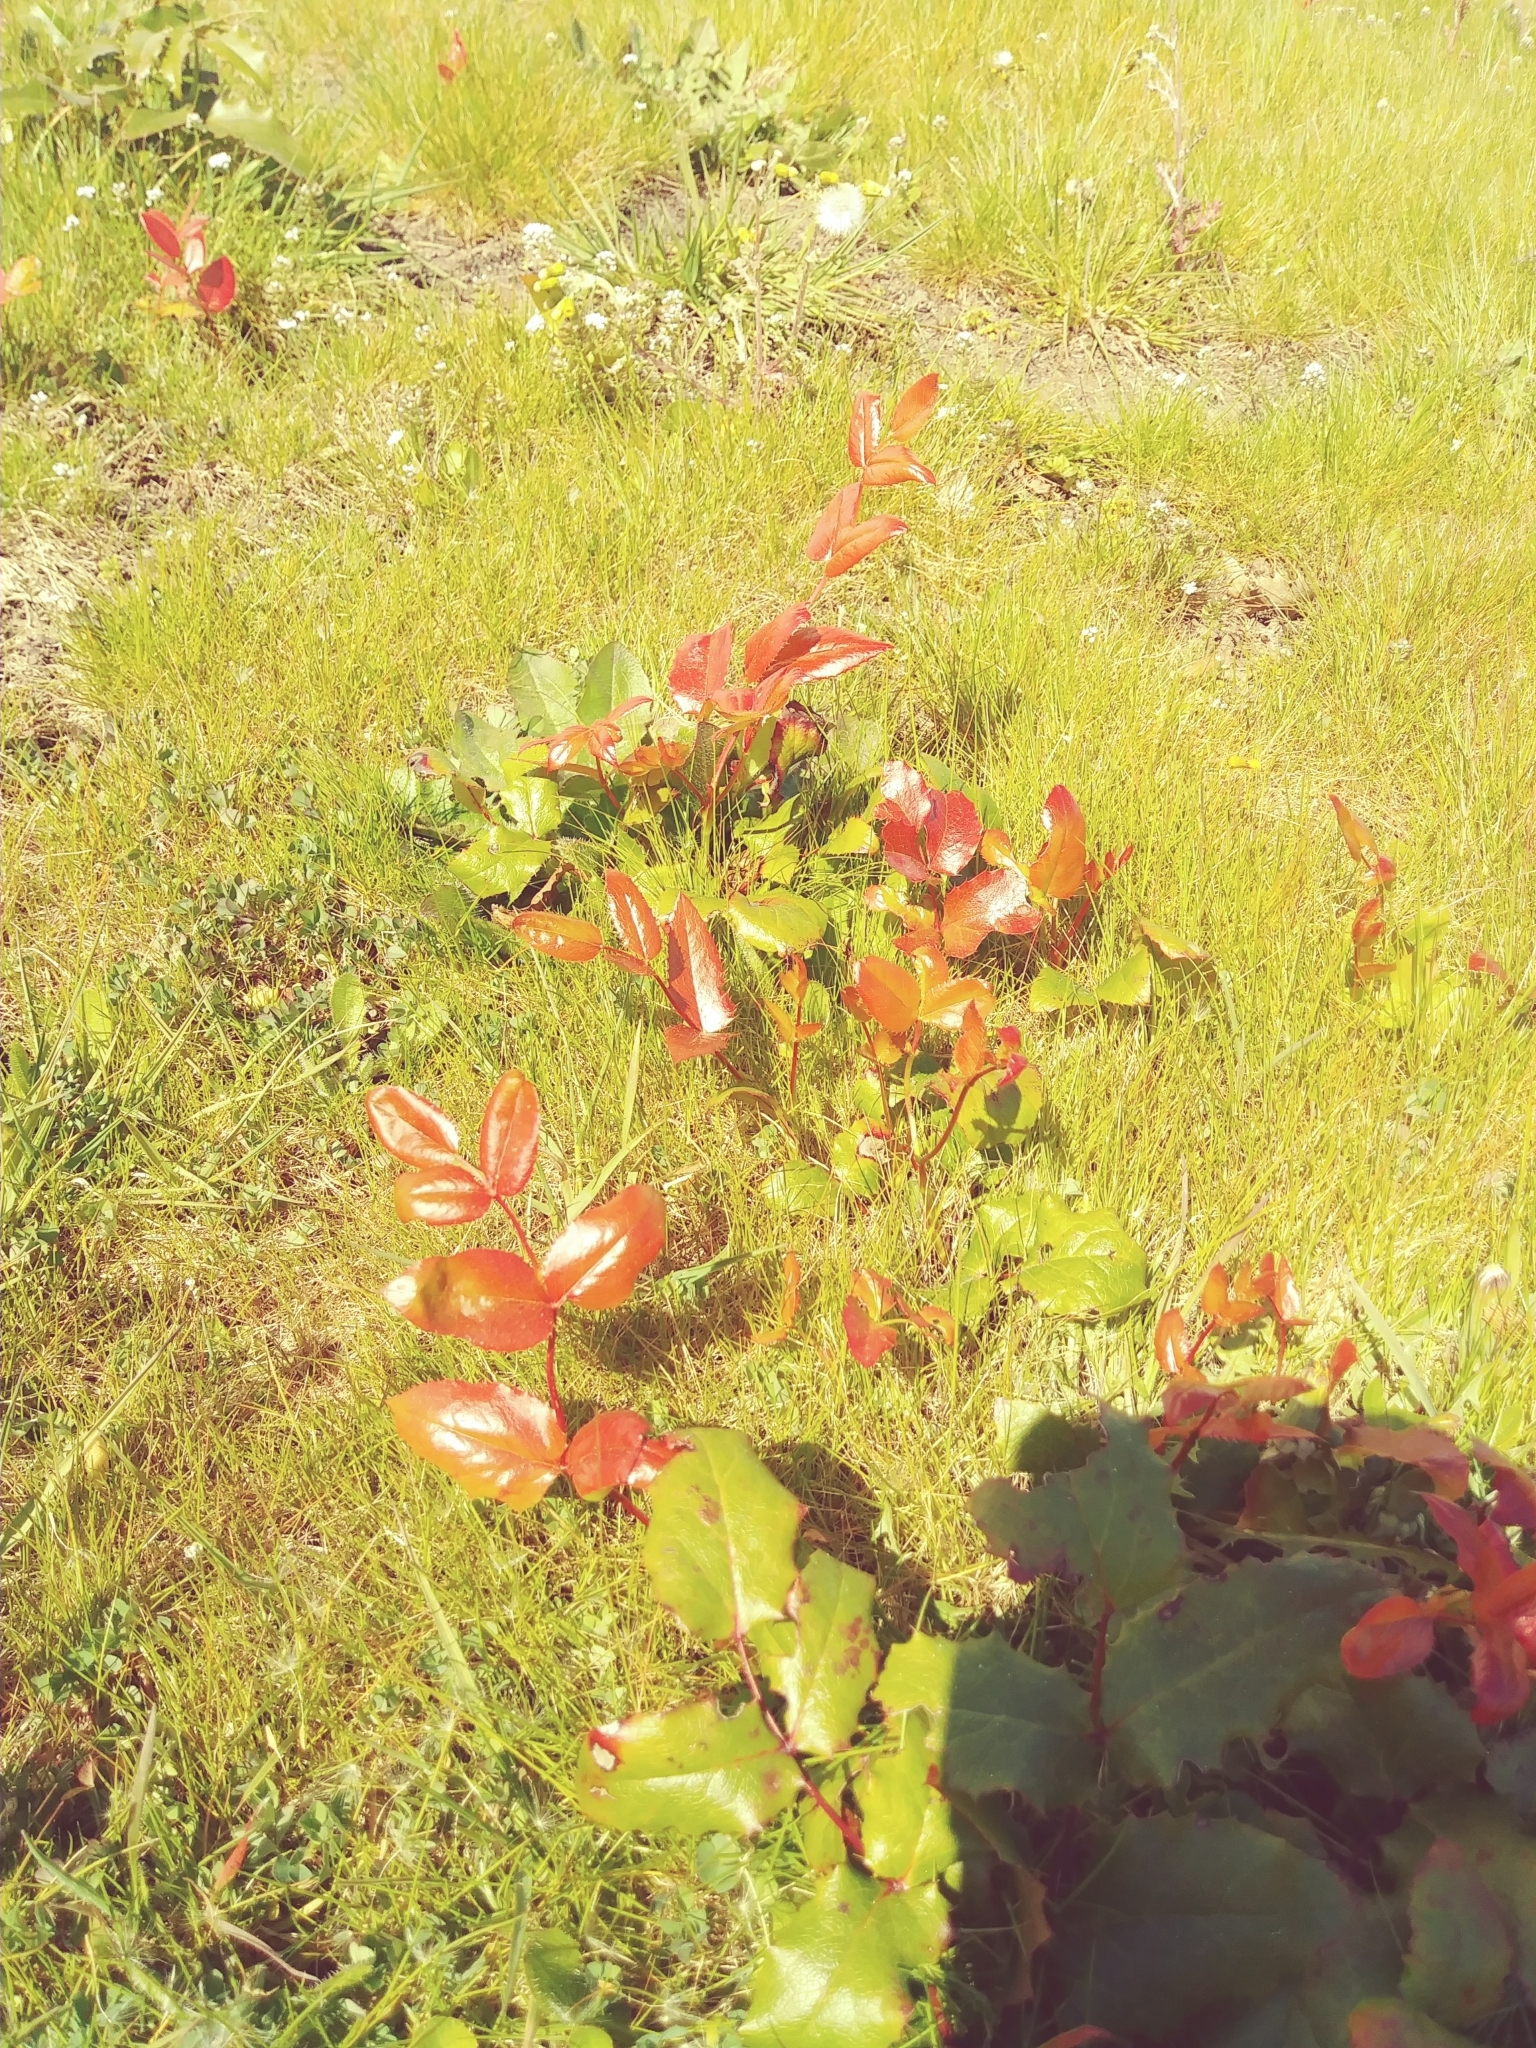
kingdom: Plantae
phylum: Tracheophyta
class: Magnoliopsida
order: Ranunculales
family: Berberidaceae
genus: Mahonia
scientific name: Mahonia aquifolium
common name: Oregon-grape
